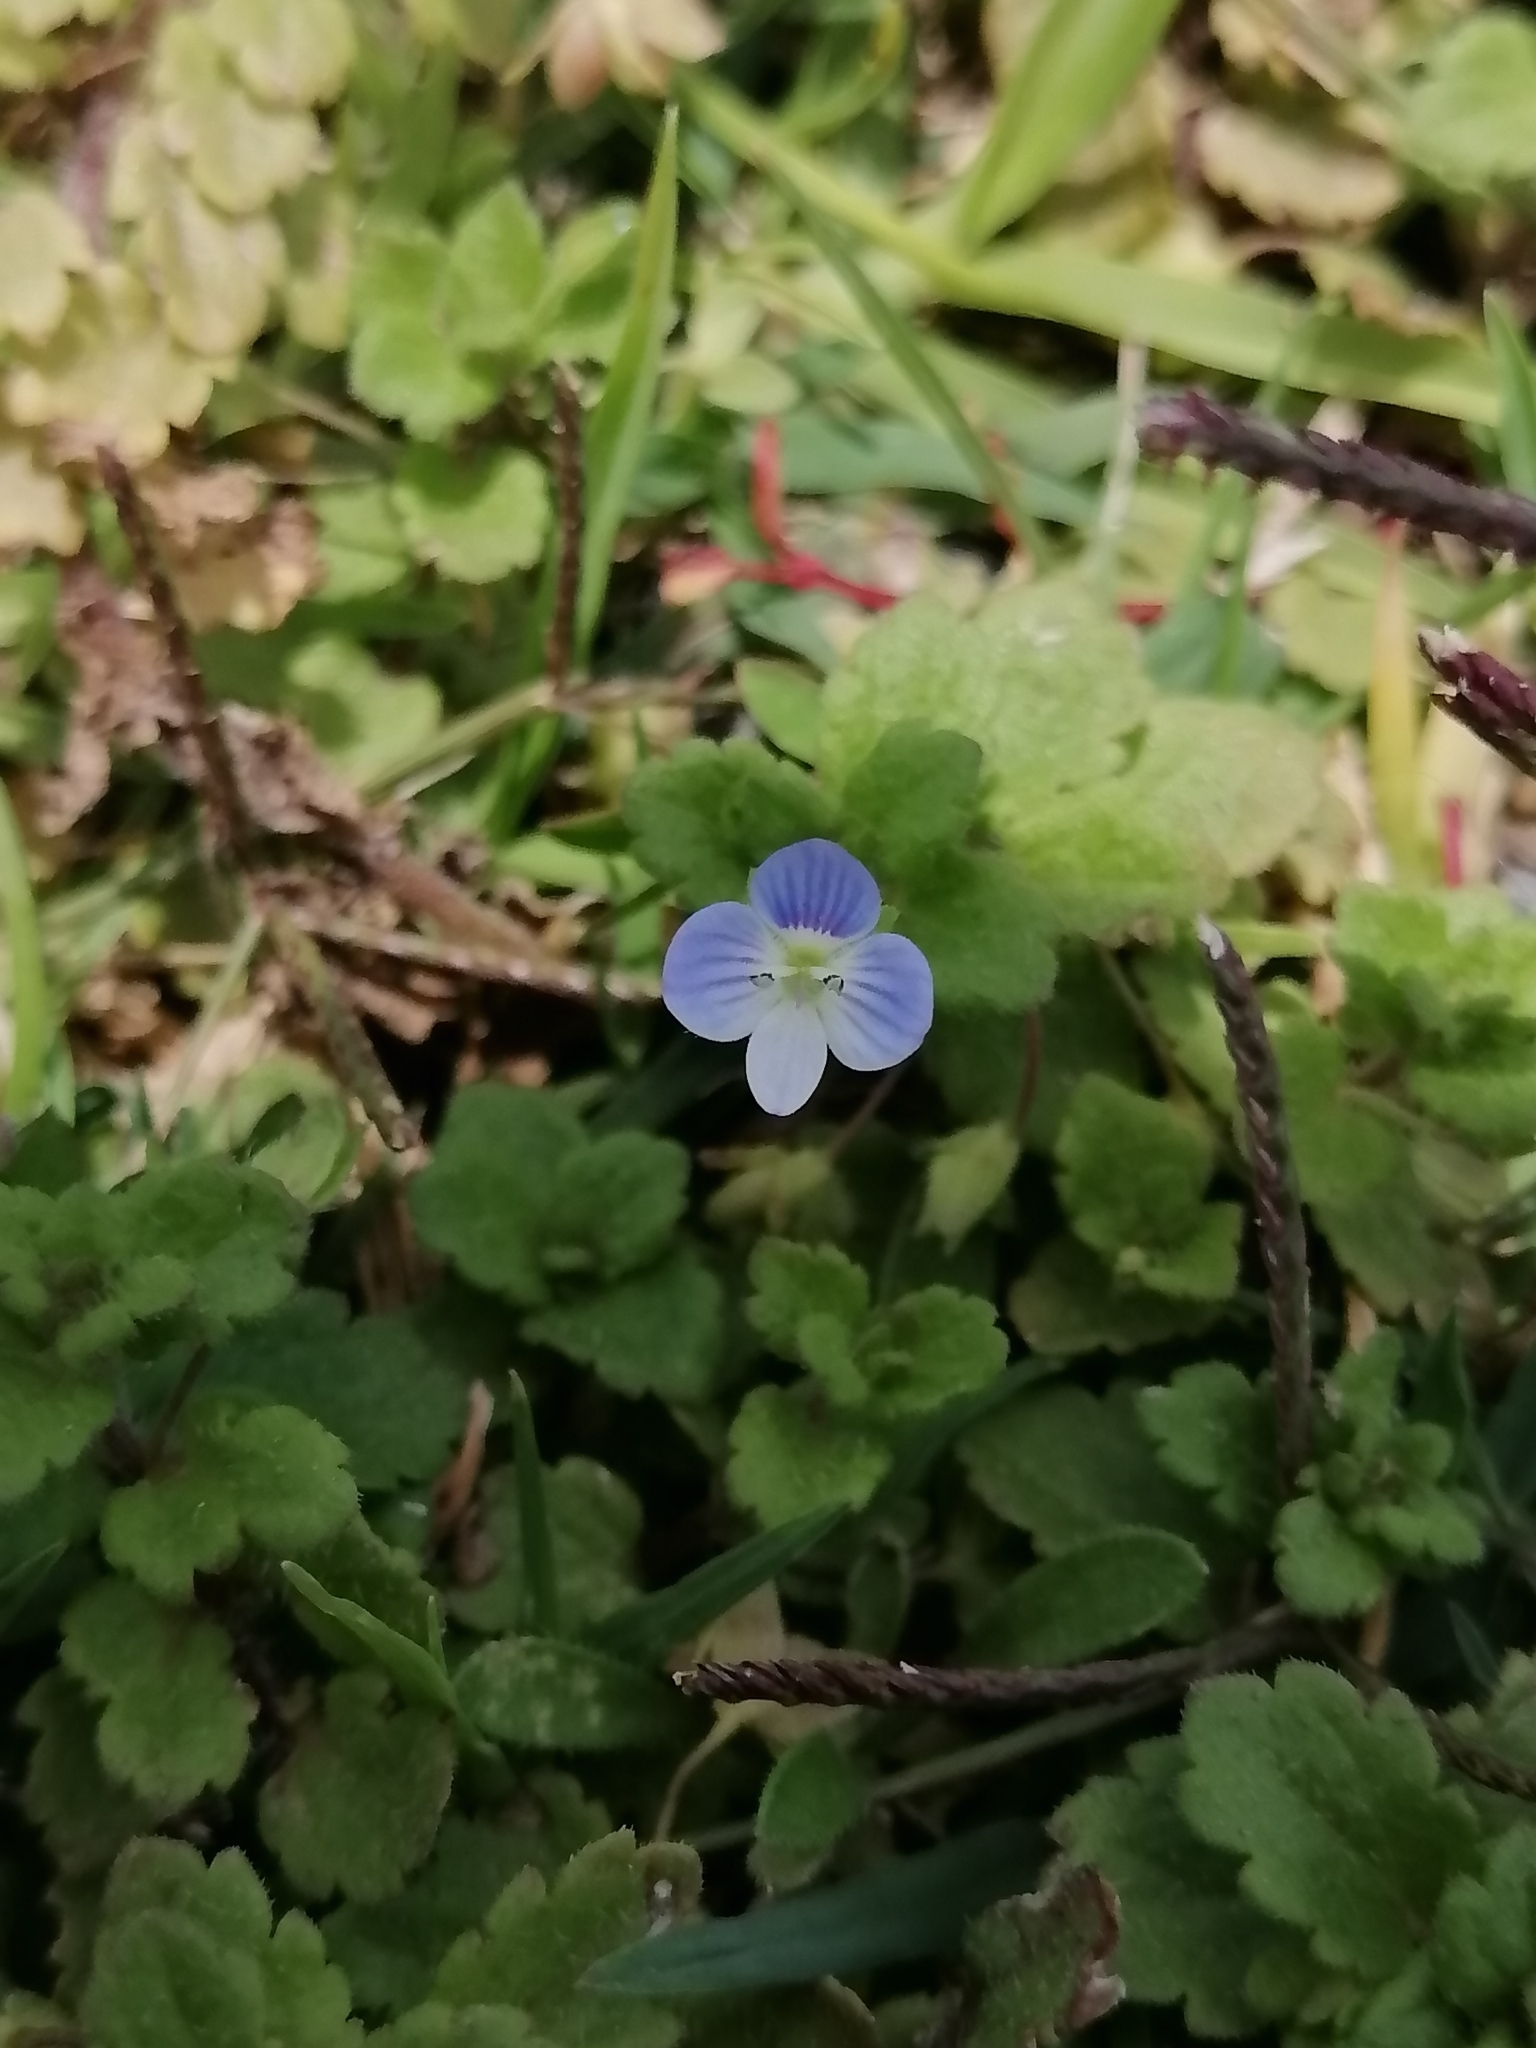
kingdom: Plantae
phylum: Tracheophyta
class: Magnoliopsida
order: Lamiales
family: Plantaginaceae
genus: Veronica
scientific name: Veronica persica
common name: Common field-speedwell
